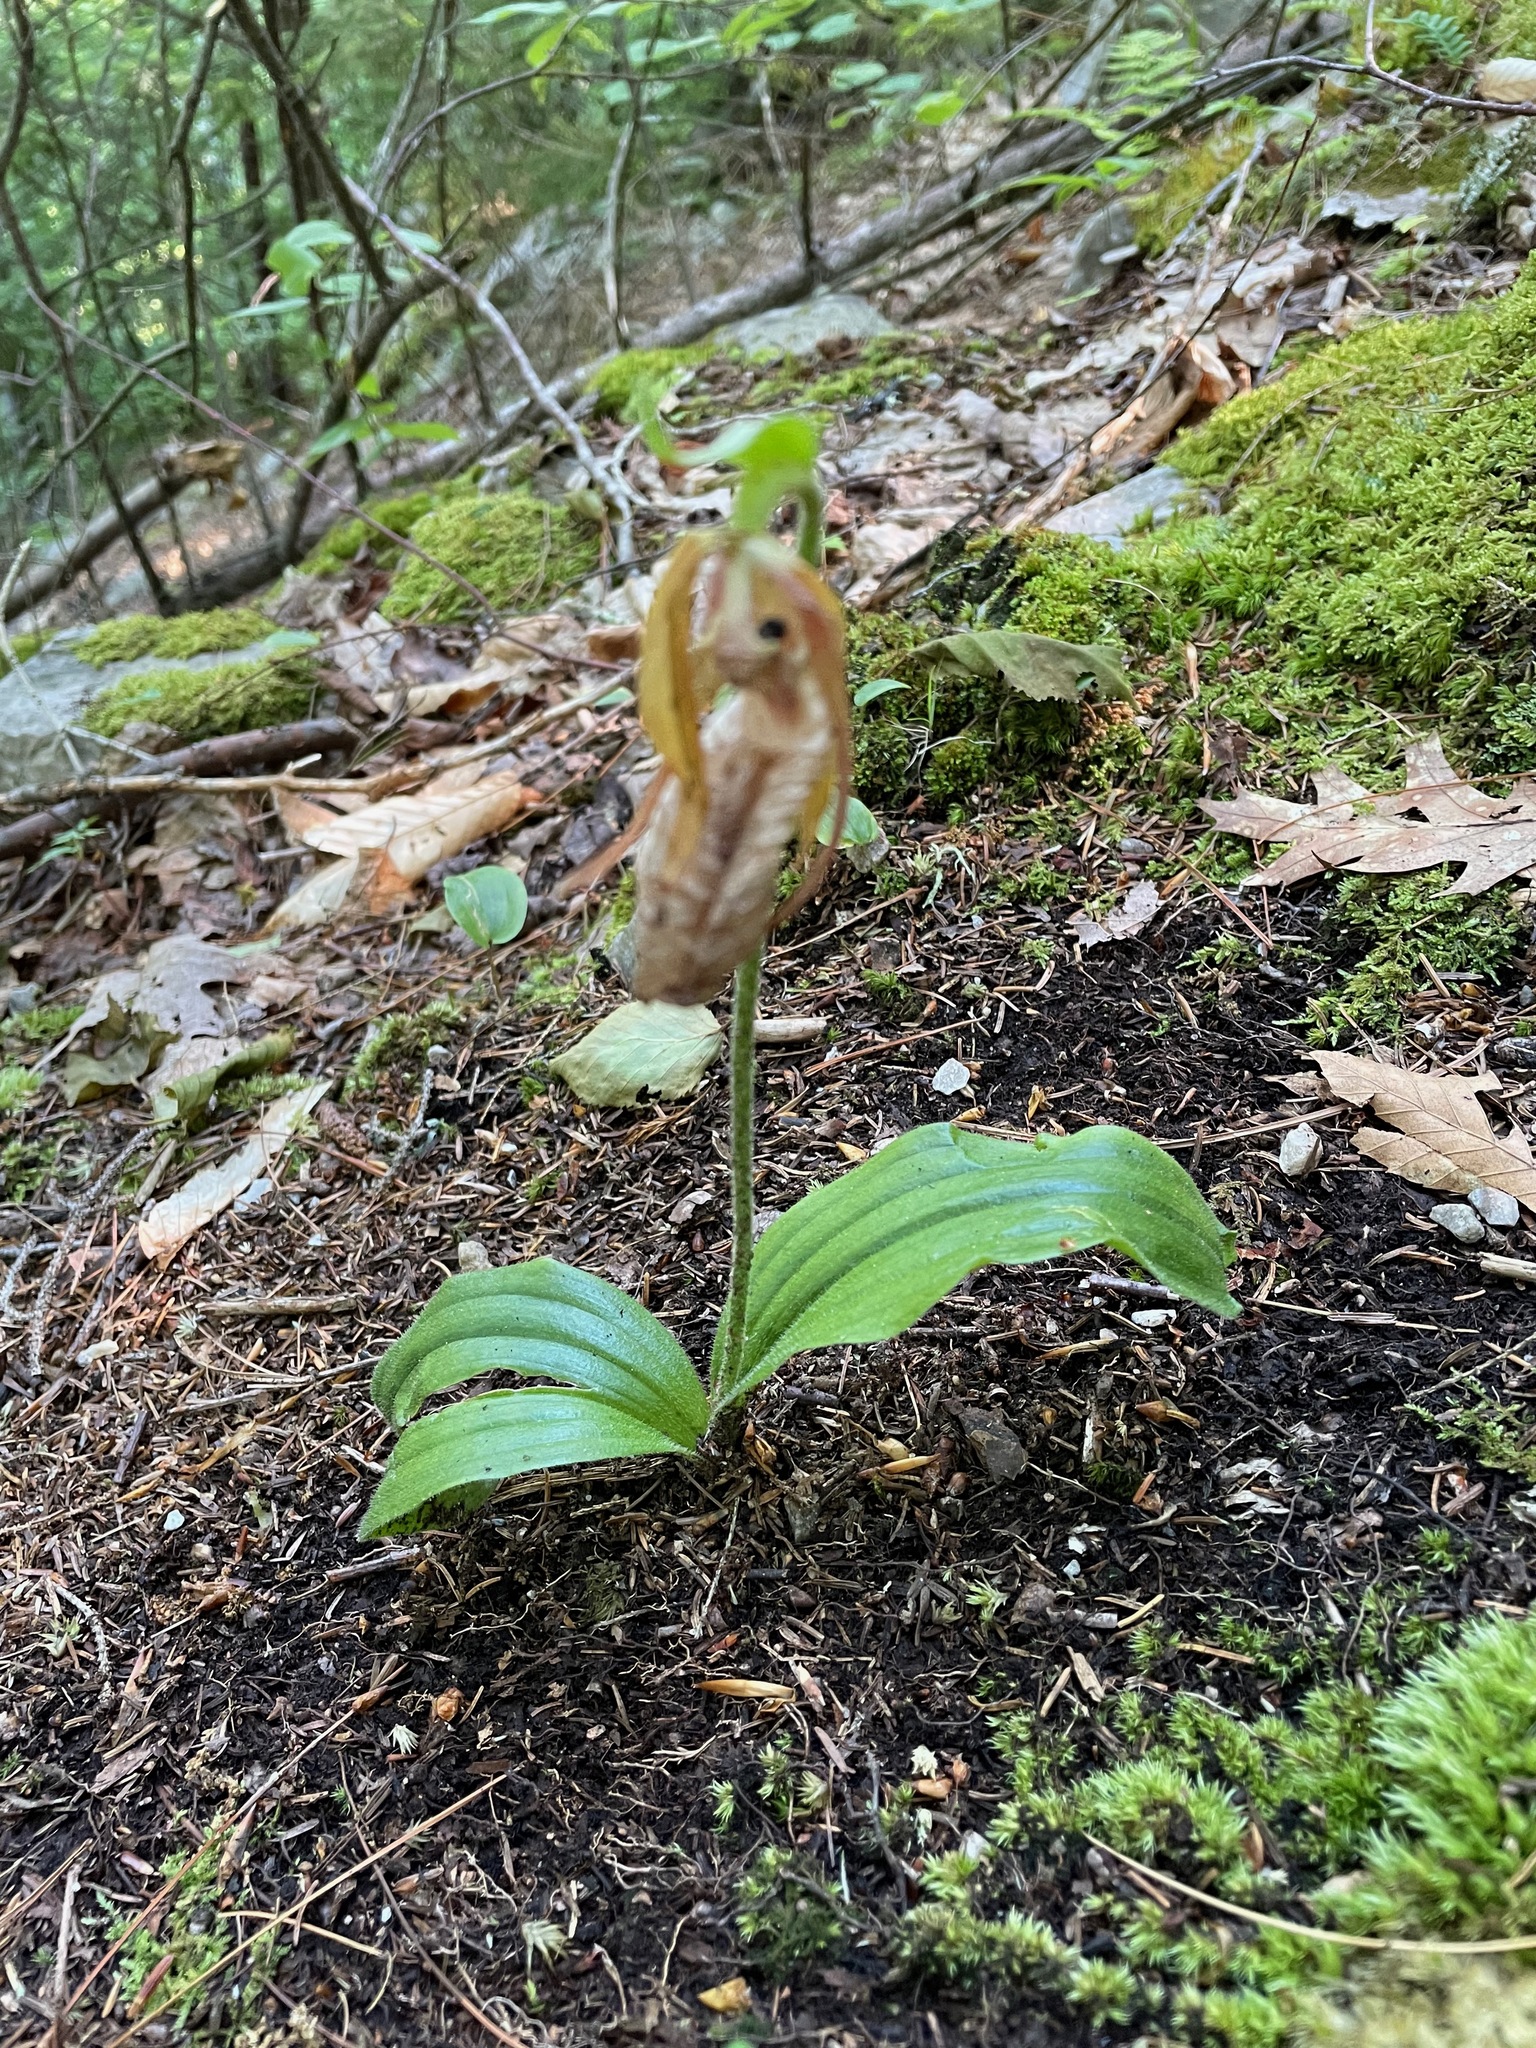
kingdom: Plantae
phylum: Tracheophyta
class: Liliopsida
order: Asparagales
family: Orchidaceae
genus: Cypripedium
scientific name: Cypripedium acaule
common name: Pink lady's-slipper
